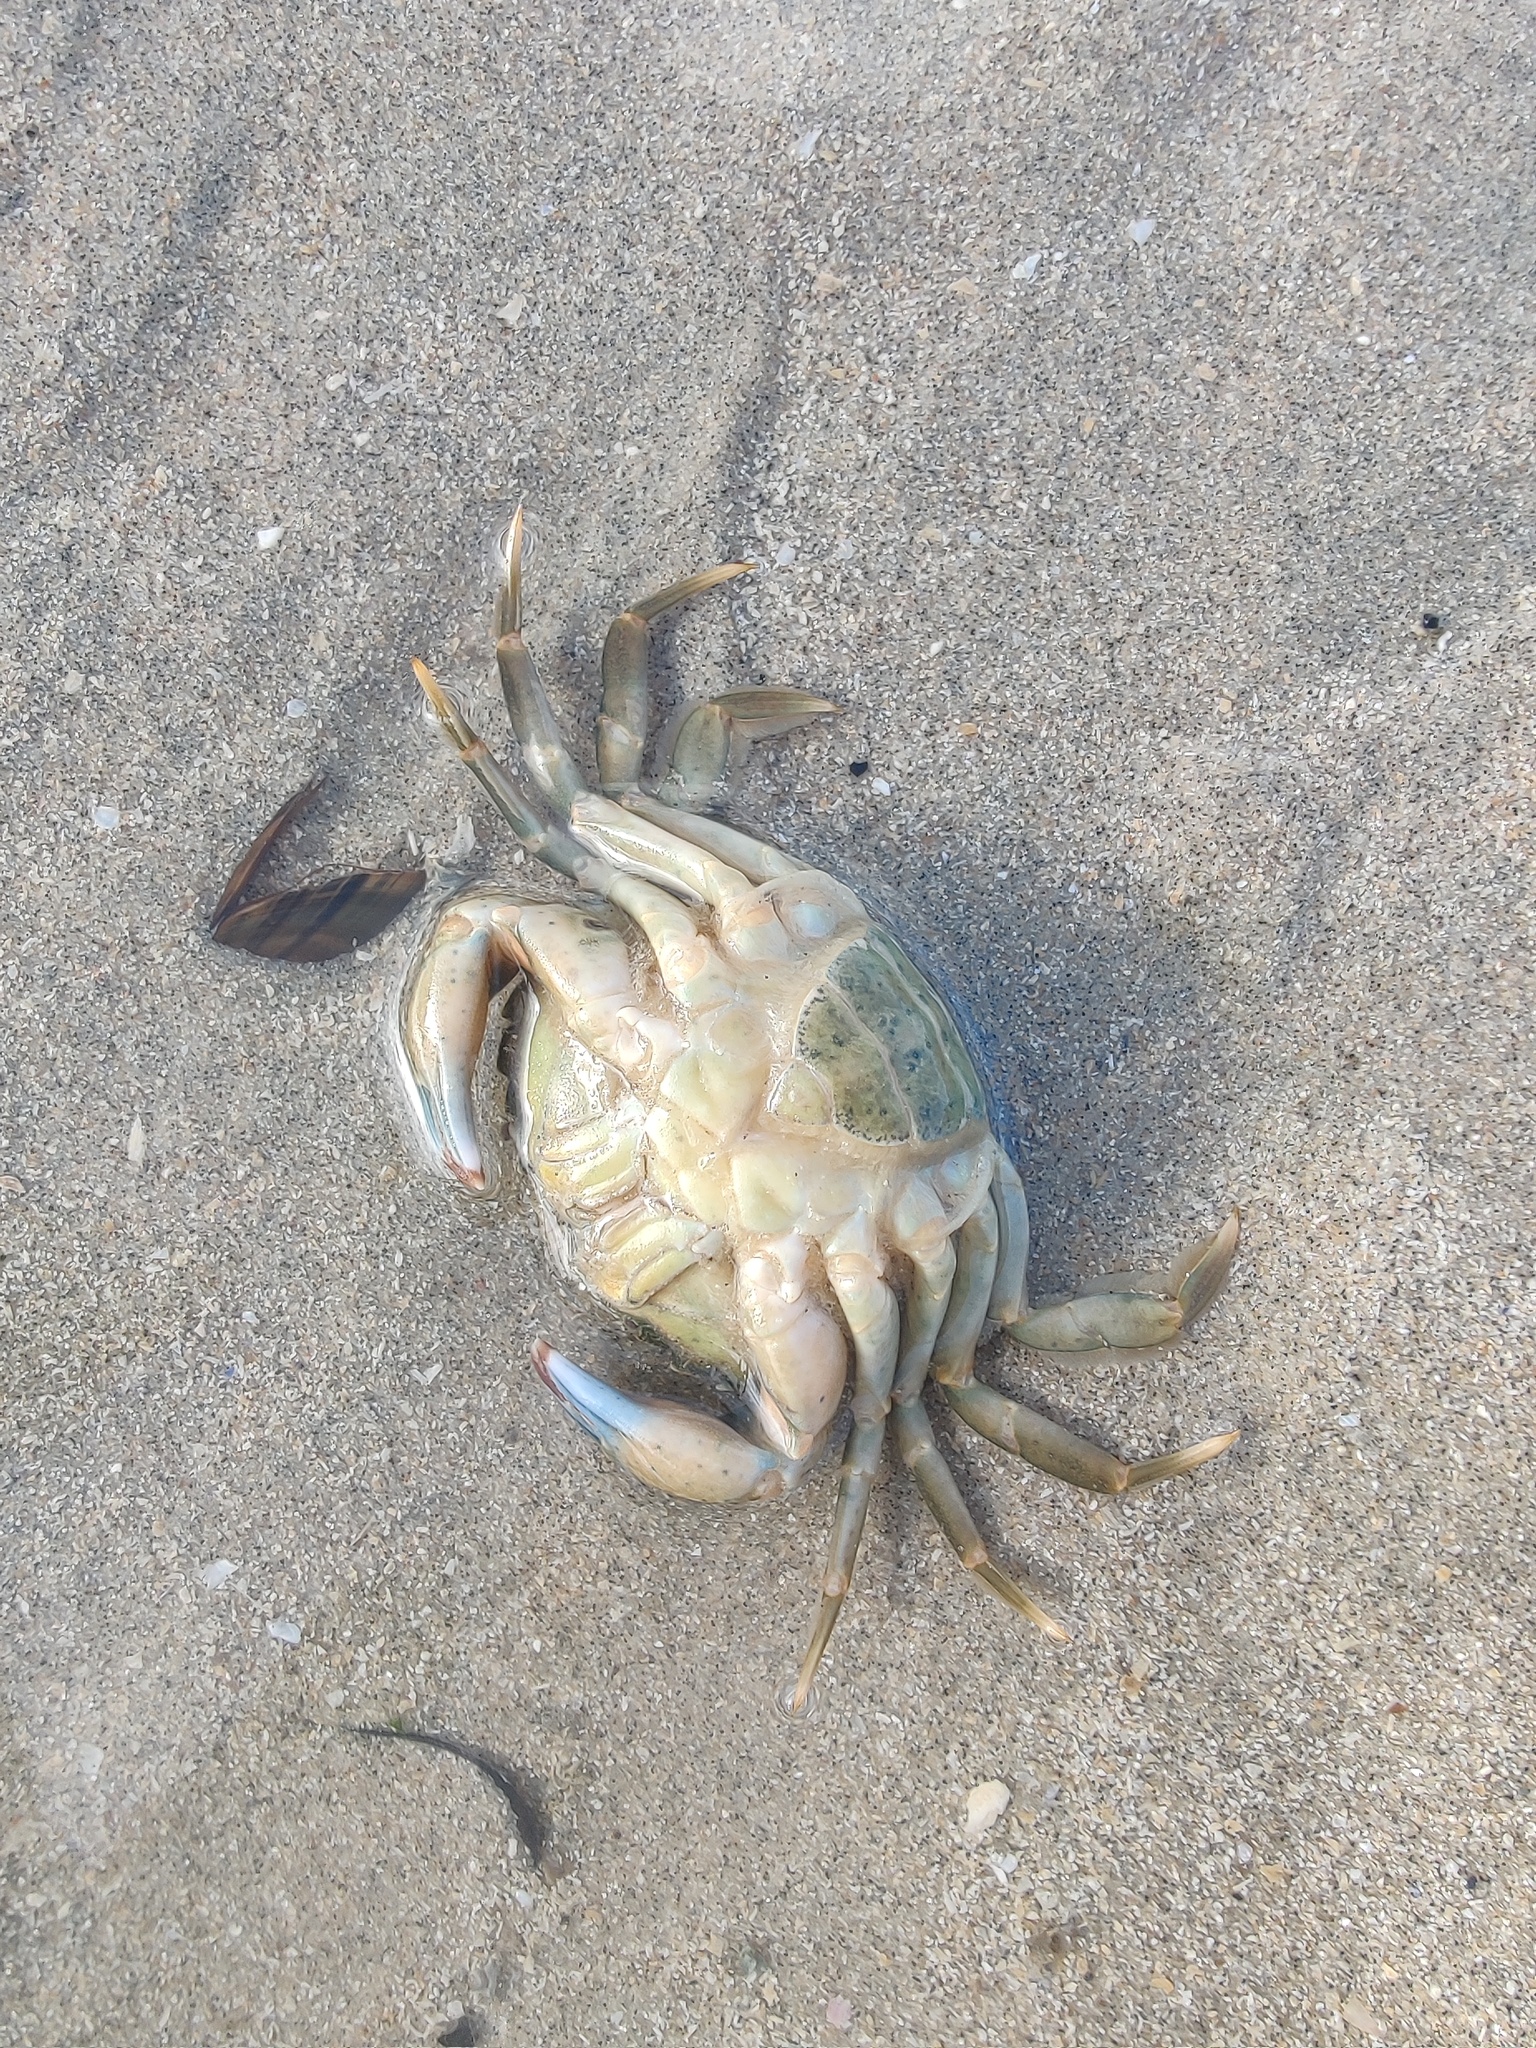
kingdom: Animalia
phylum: Arthropoda
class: Malacostraca
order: Decapoda
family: Carcinidae
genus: Carcinus
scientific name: Carcinus maenas
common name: European green crab
